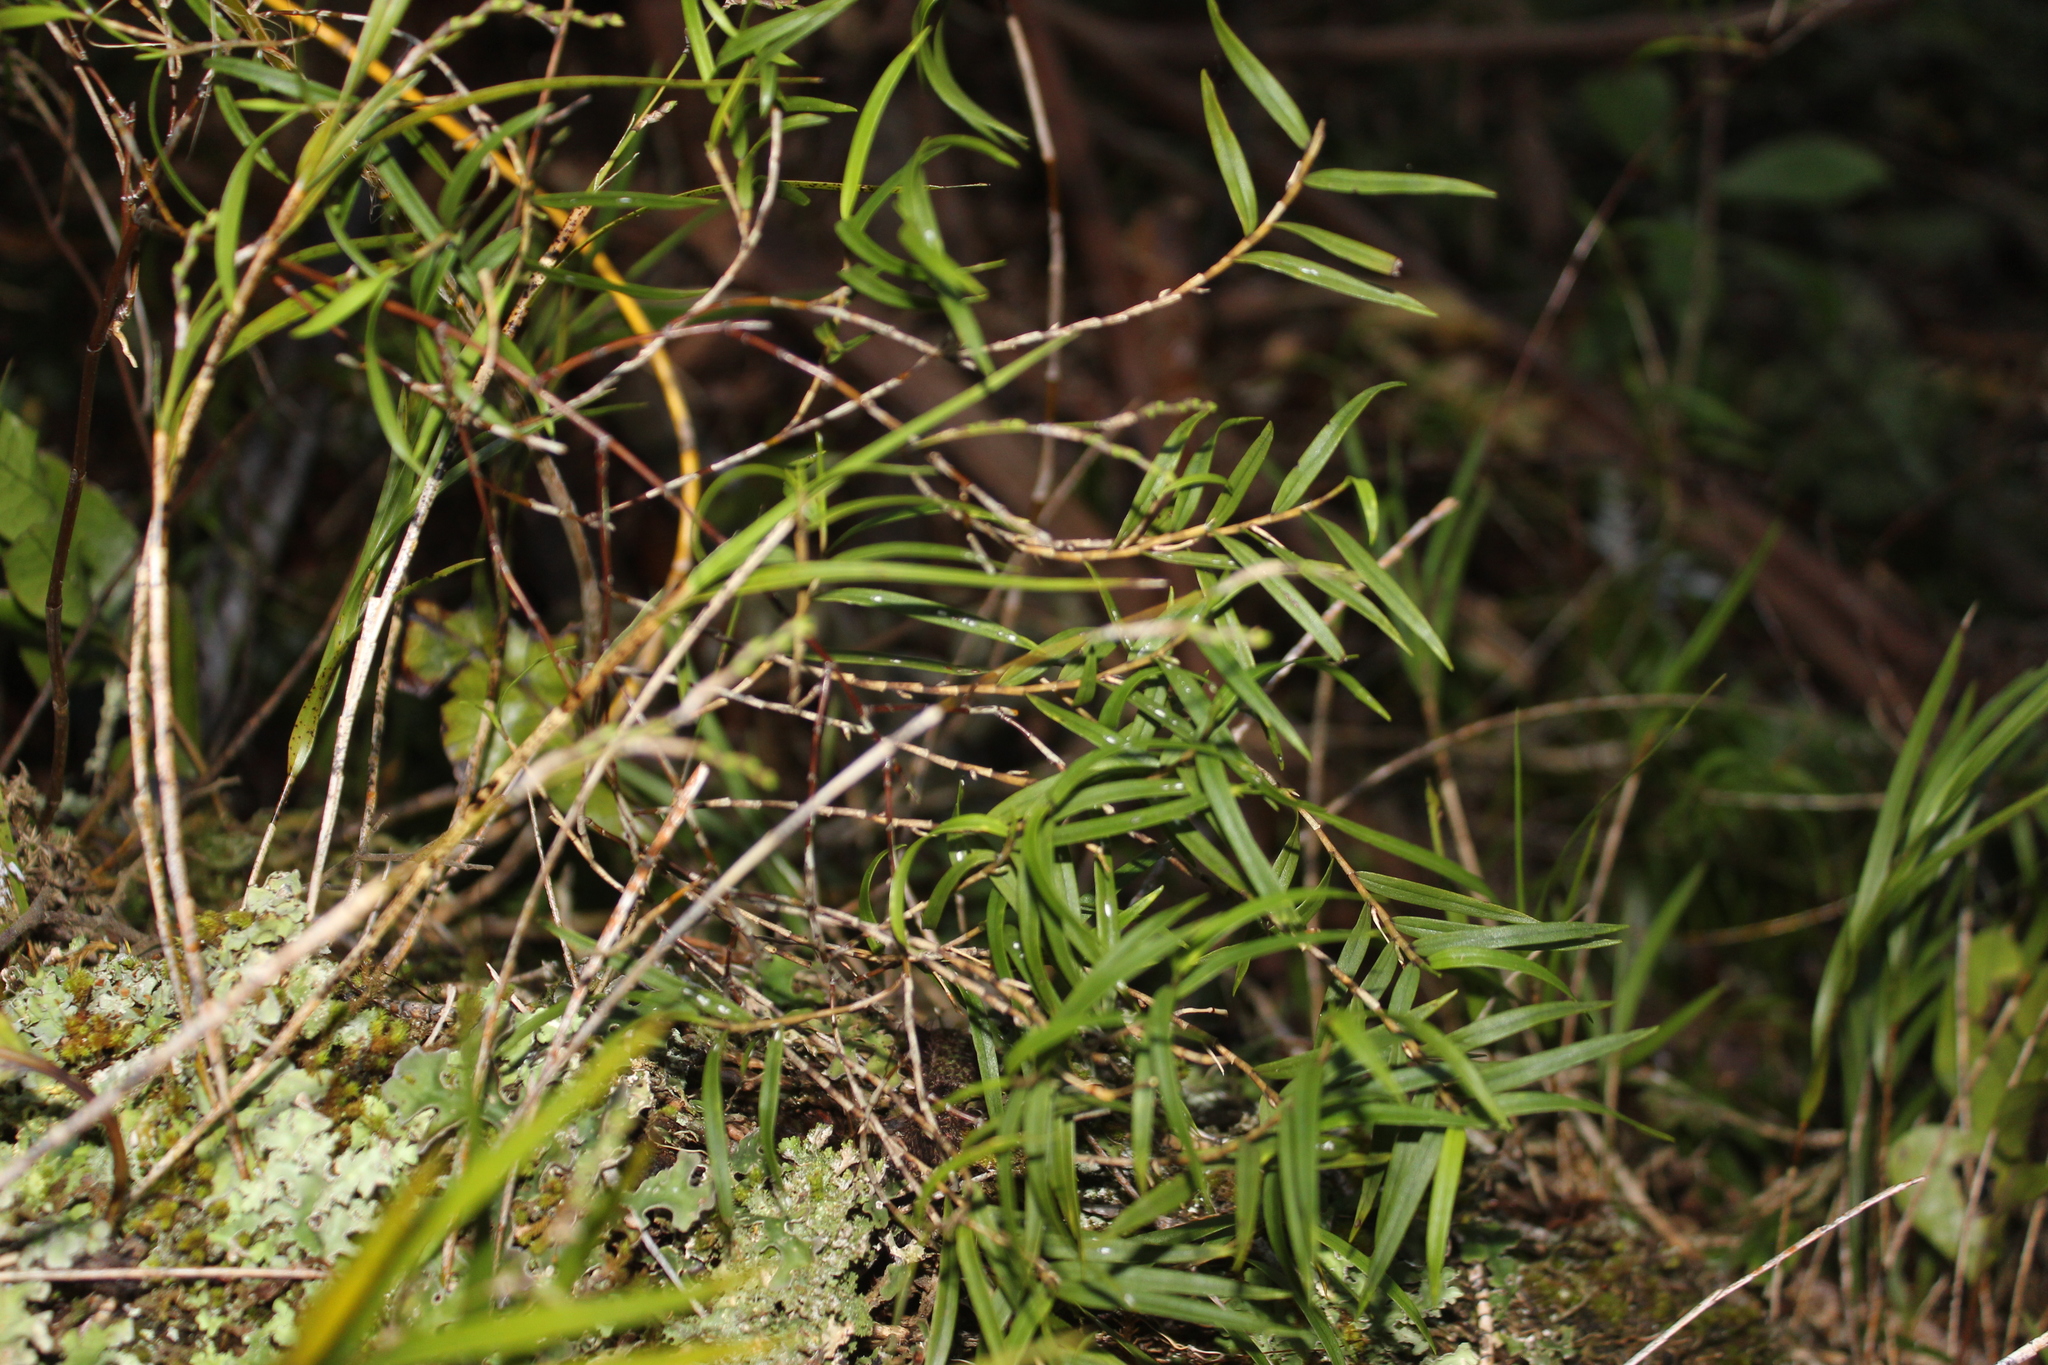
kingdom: Plantae
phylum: Tracheophyta
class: Liliopsida
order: Asparagales
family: Orchidaceae
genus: Dendrobium
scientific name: Dendrobium cunninghamii
